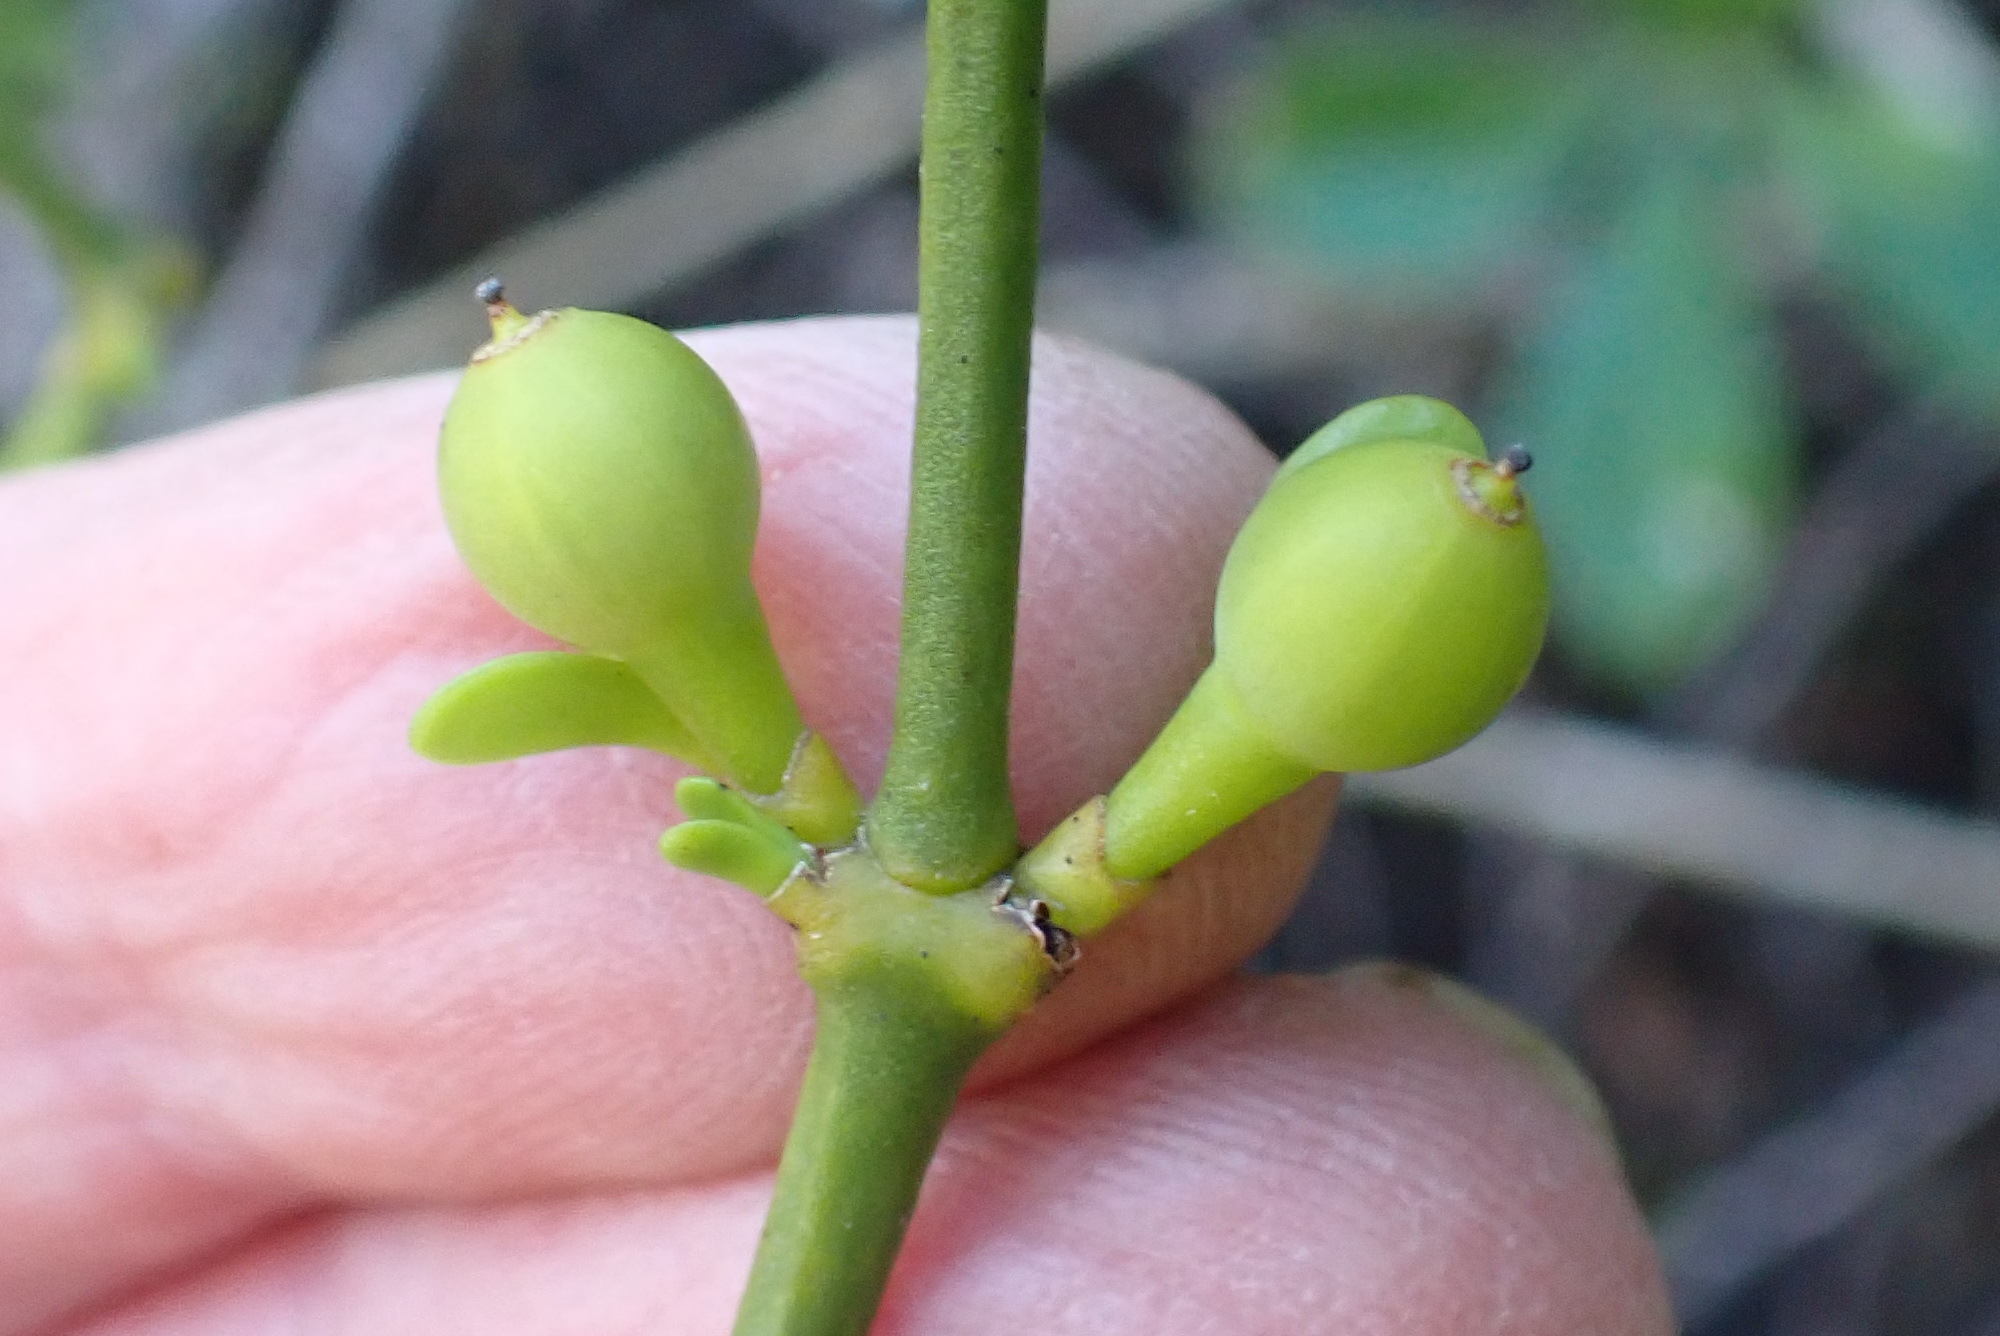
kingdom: Plantae
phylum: Tracheophyta
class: Magnoliopsida
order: Santalales
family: Viscaceae
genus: Viscum
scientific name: Viscum rotundifolium
